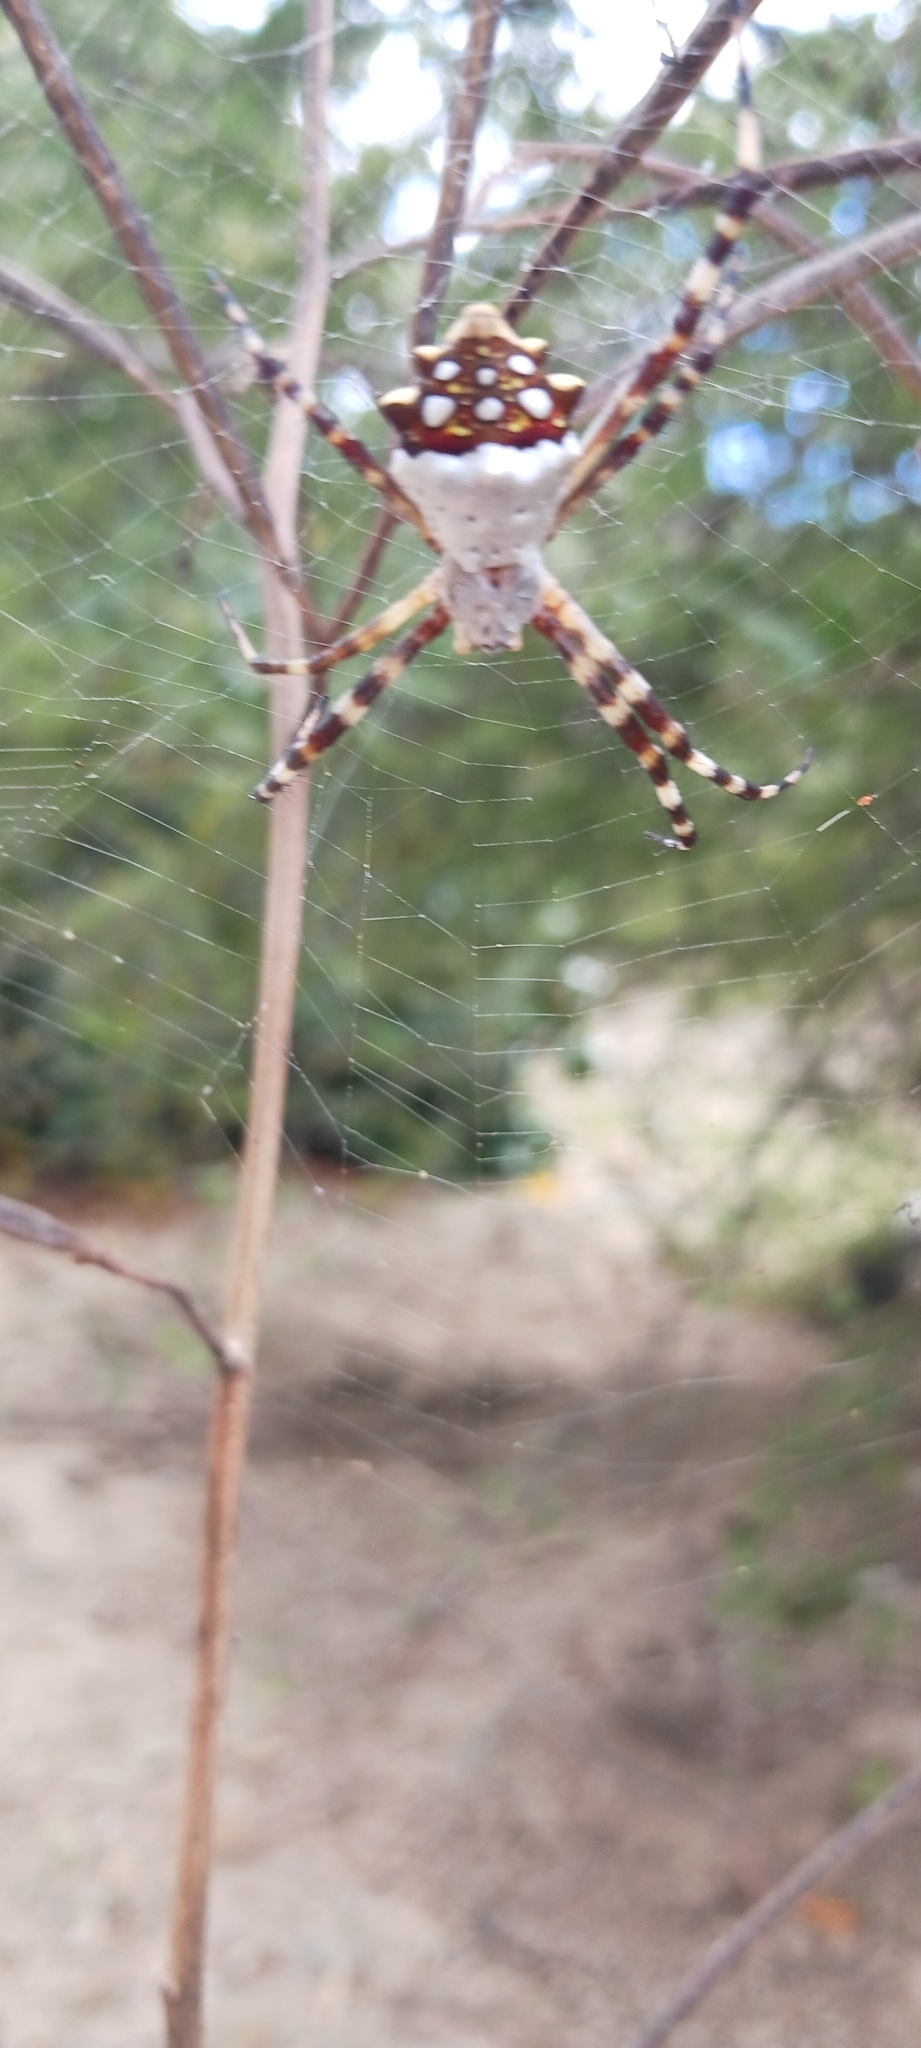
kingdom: Animalia
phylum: Arthropoda
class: Arachnida
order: Araneae
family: Araneidae
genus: Argiope
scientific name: Argiope argentata
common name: Orb weavers
